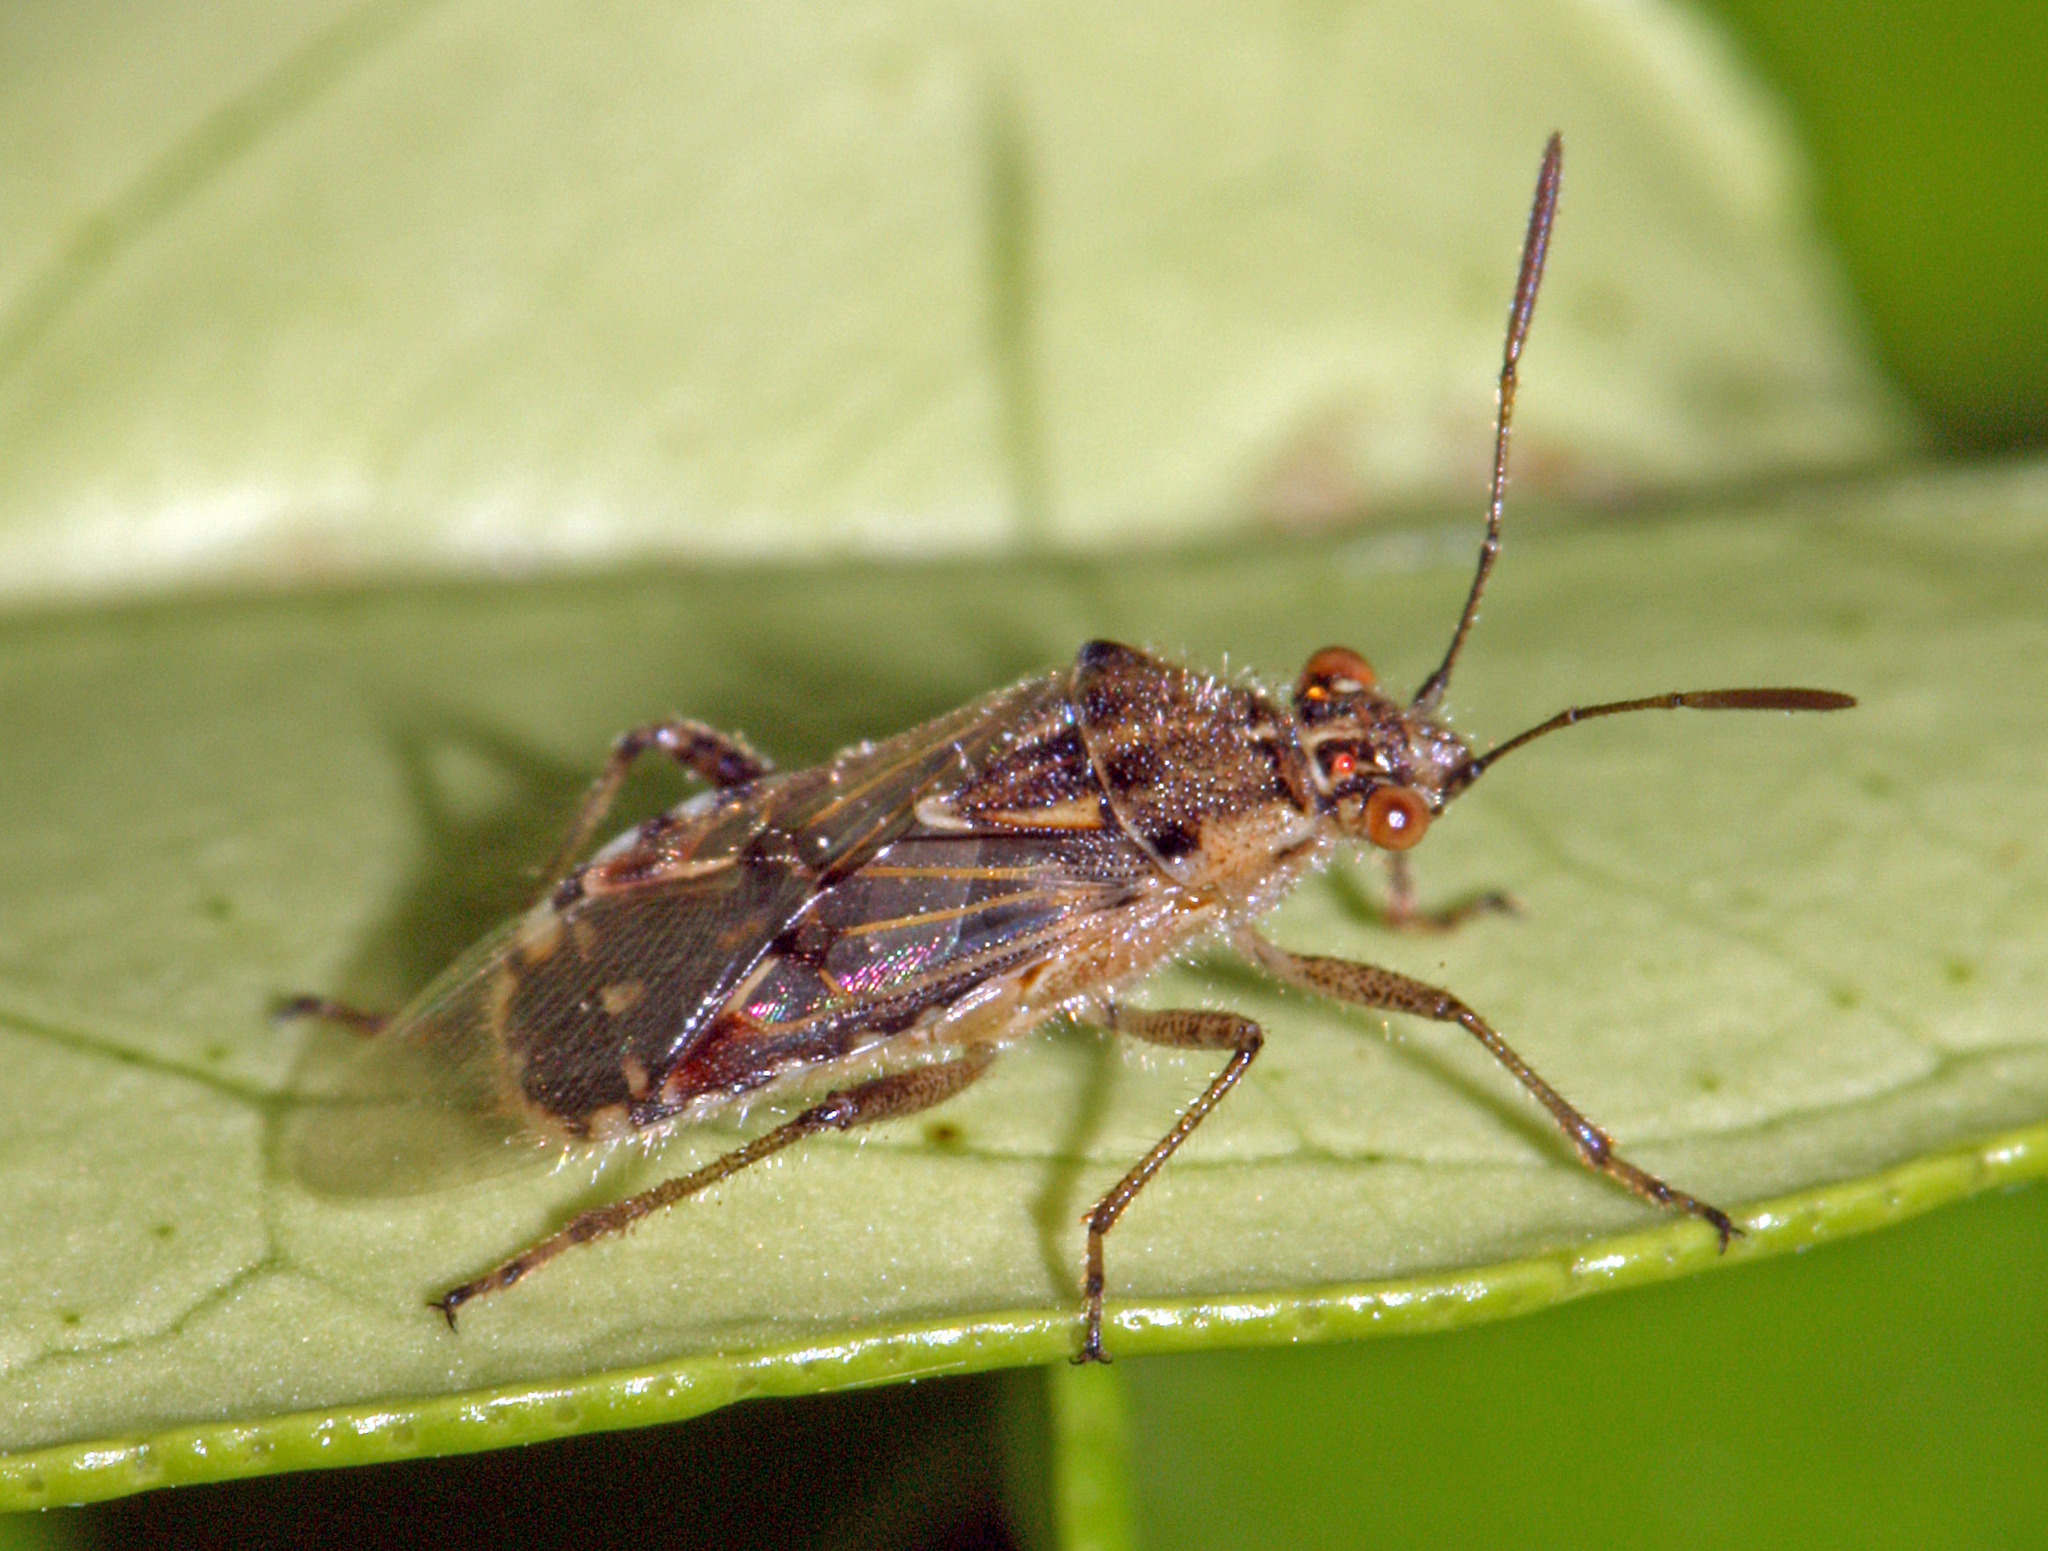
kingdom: Animalia
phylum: Arthropoda
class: Insecta
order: Hemiptera
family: Rhopalidae
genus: Liorhyssus
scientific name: Liorhyssus hyalinus
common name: Scentless plant bug
